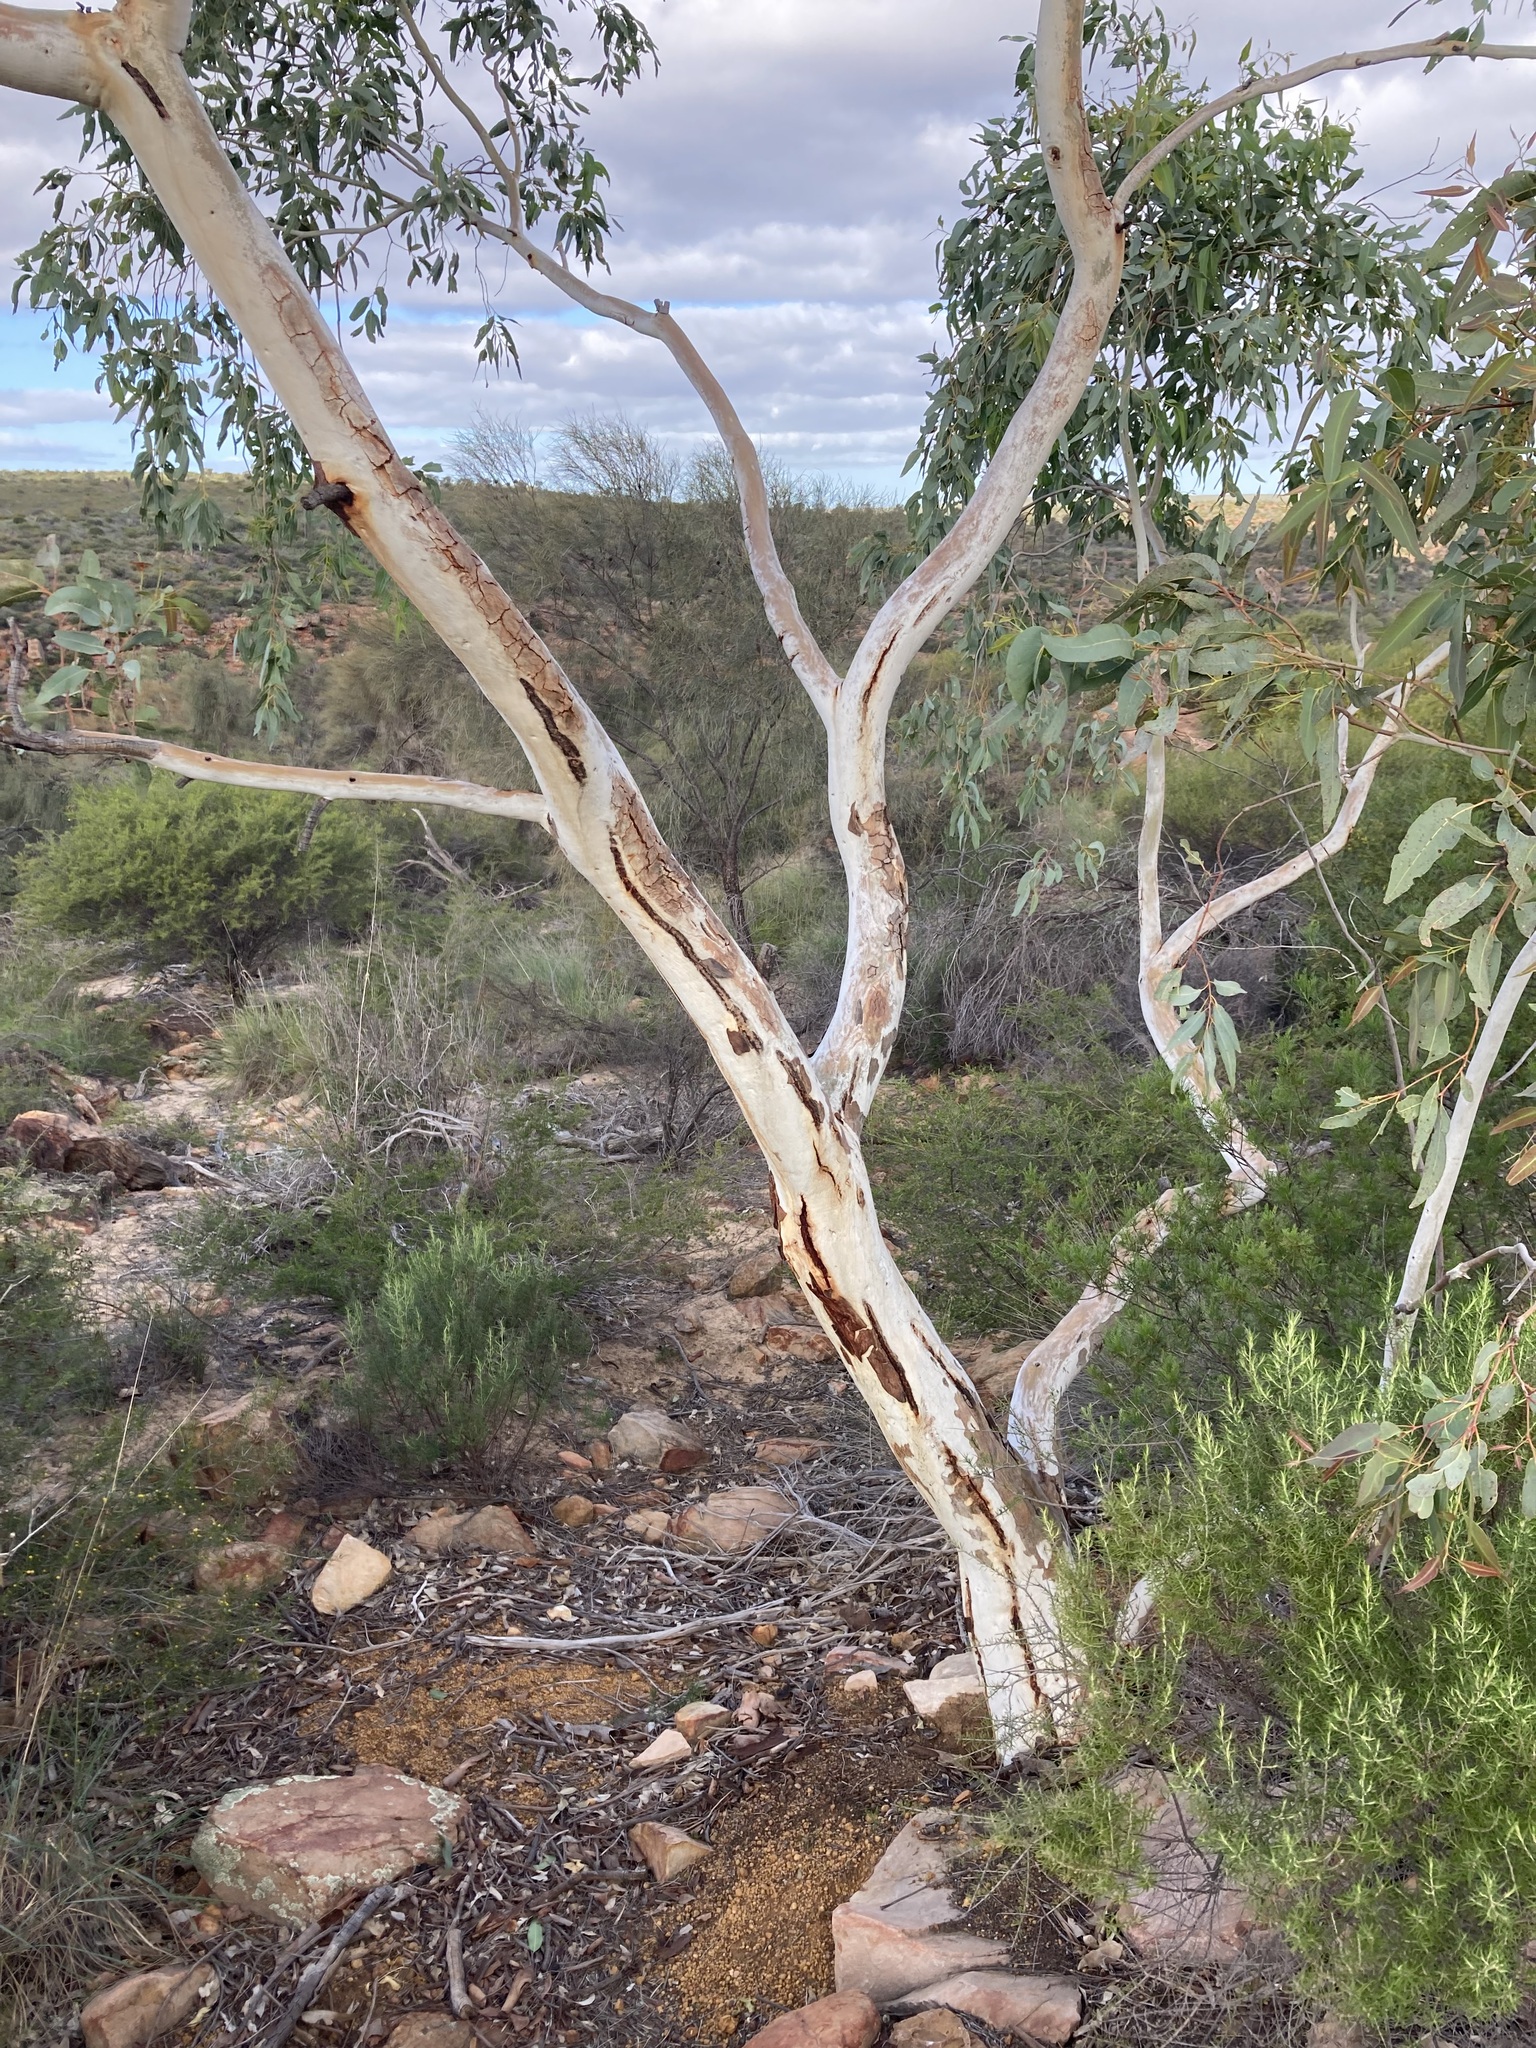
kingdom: Plantae
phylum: Tracheophyta
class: Magnoliopsida
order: Myrtales
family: Myrtaceae
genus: Eucalyptus
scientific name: Eucalyptus camaldulensis
